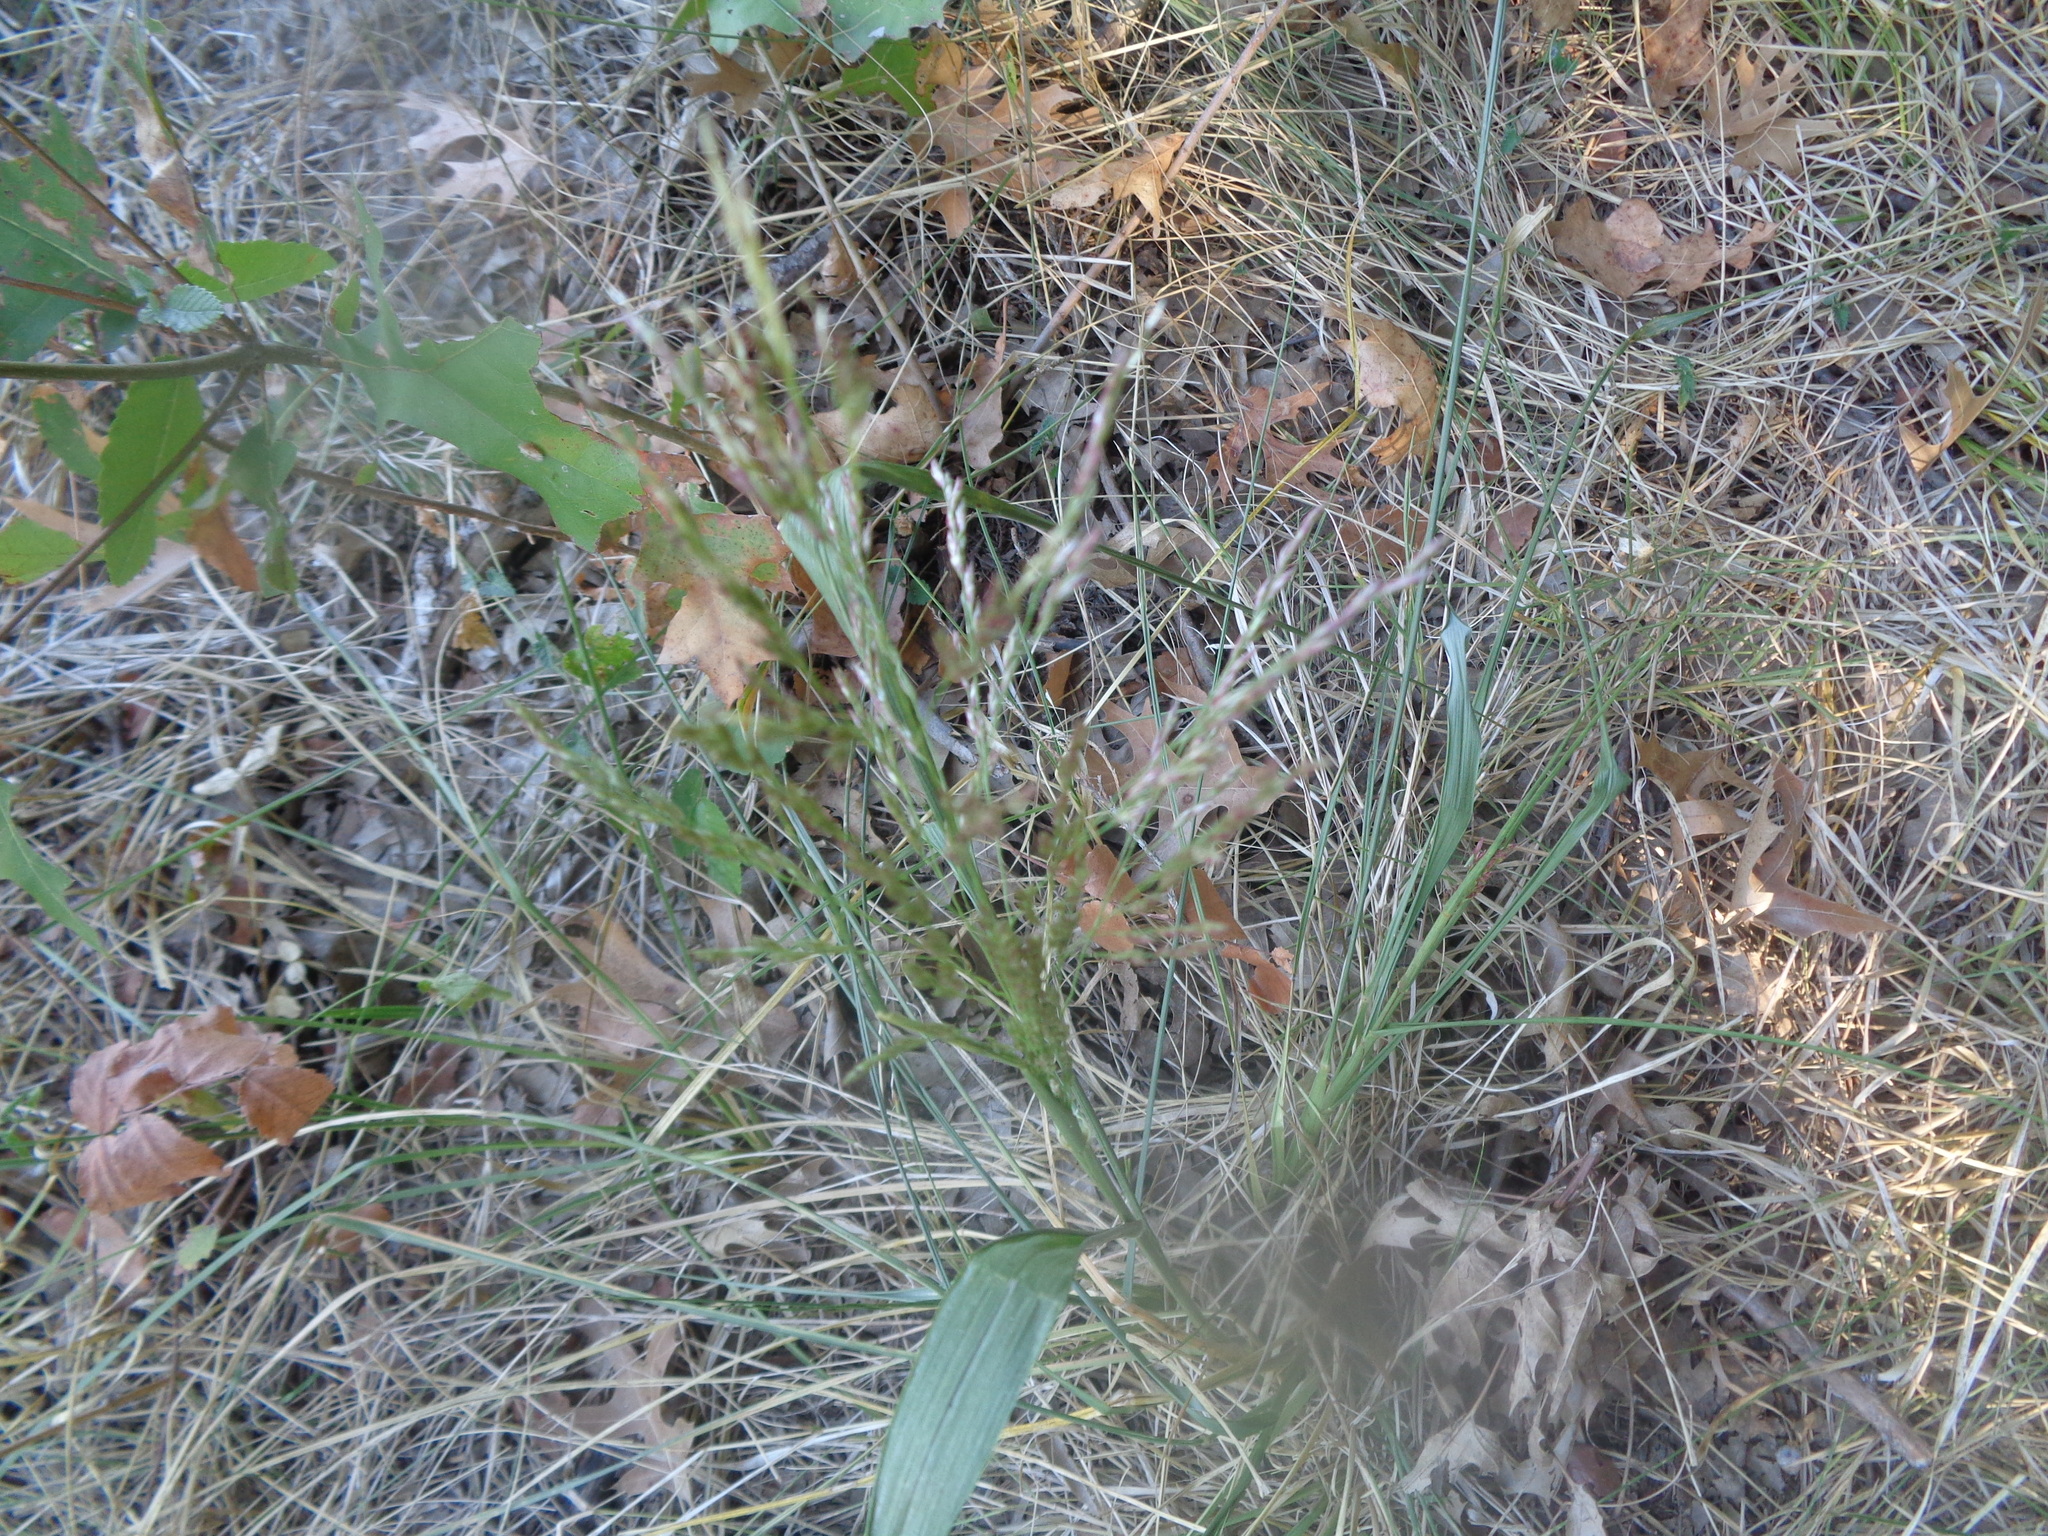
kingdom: Plantae
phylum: Tracheophyta
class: Liliopsida
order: Poales
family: Poaceae
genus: Tridens
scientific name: Tridens flavus
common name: Purpletop
